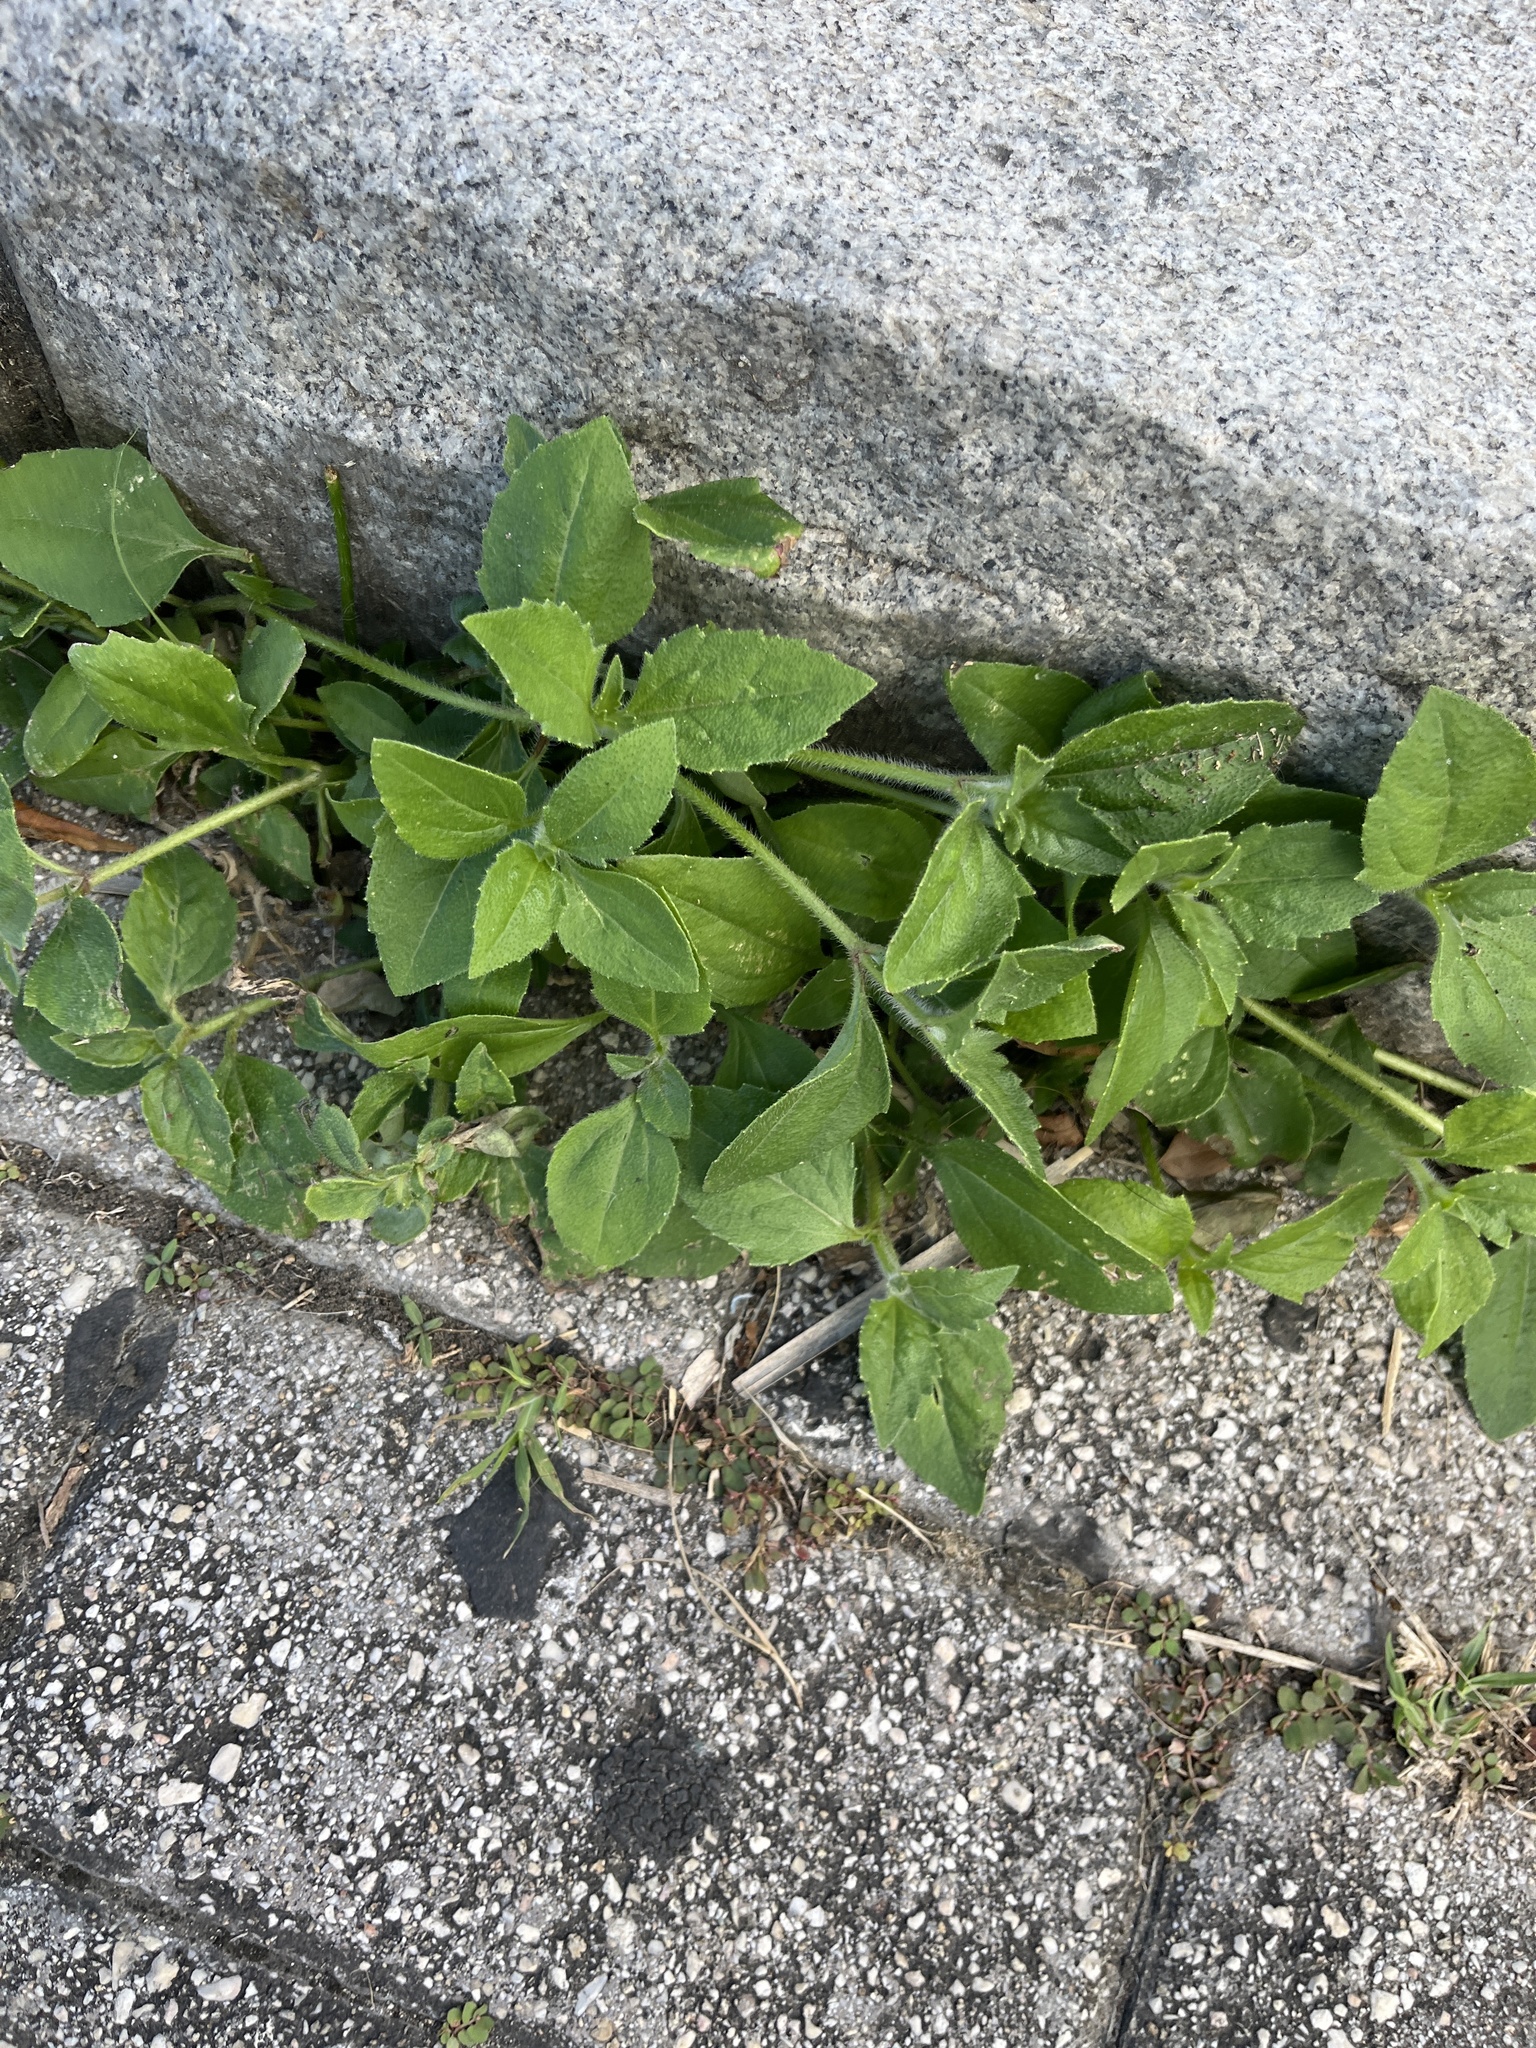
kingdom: Plantae
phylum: Tracheophyta
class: Magnoliopsida
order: Asterales
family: Asteraceae
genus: Tridax
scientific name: Tridax procumbens
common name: Coatbuttons
